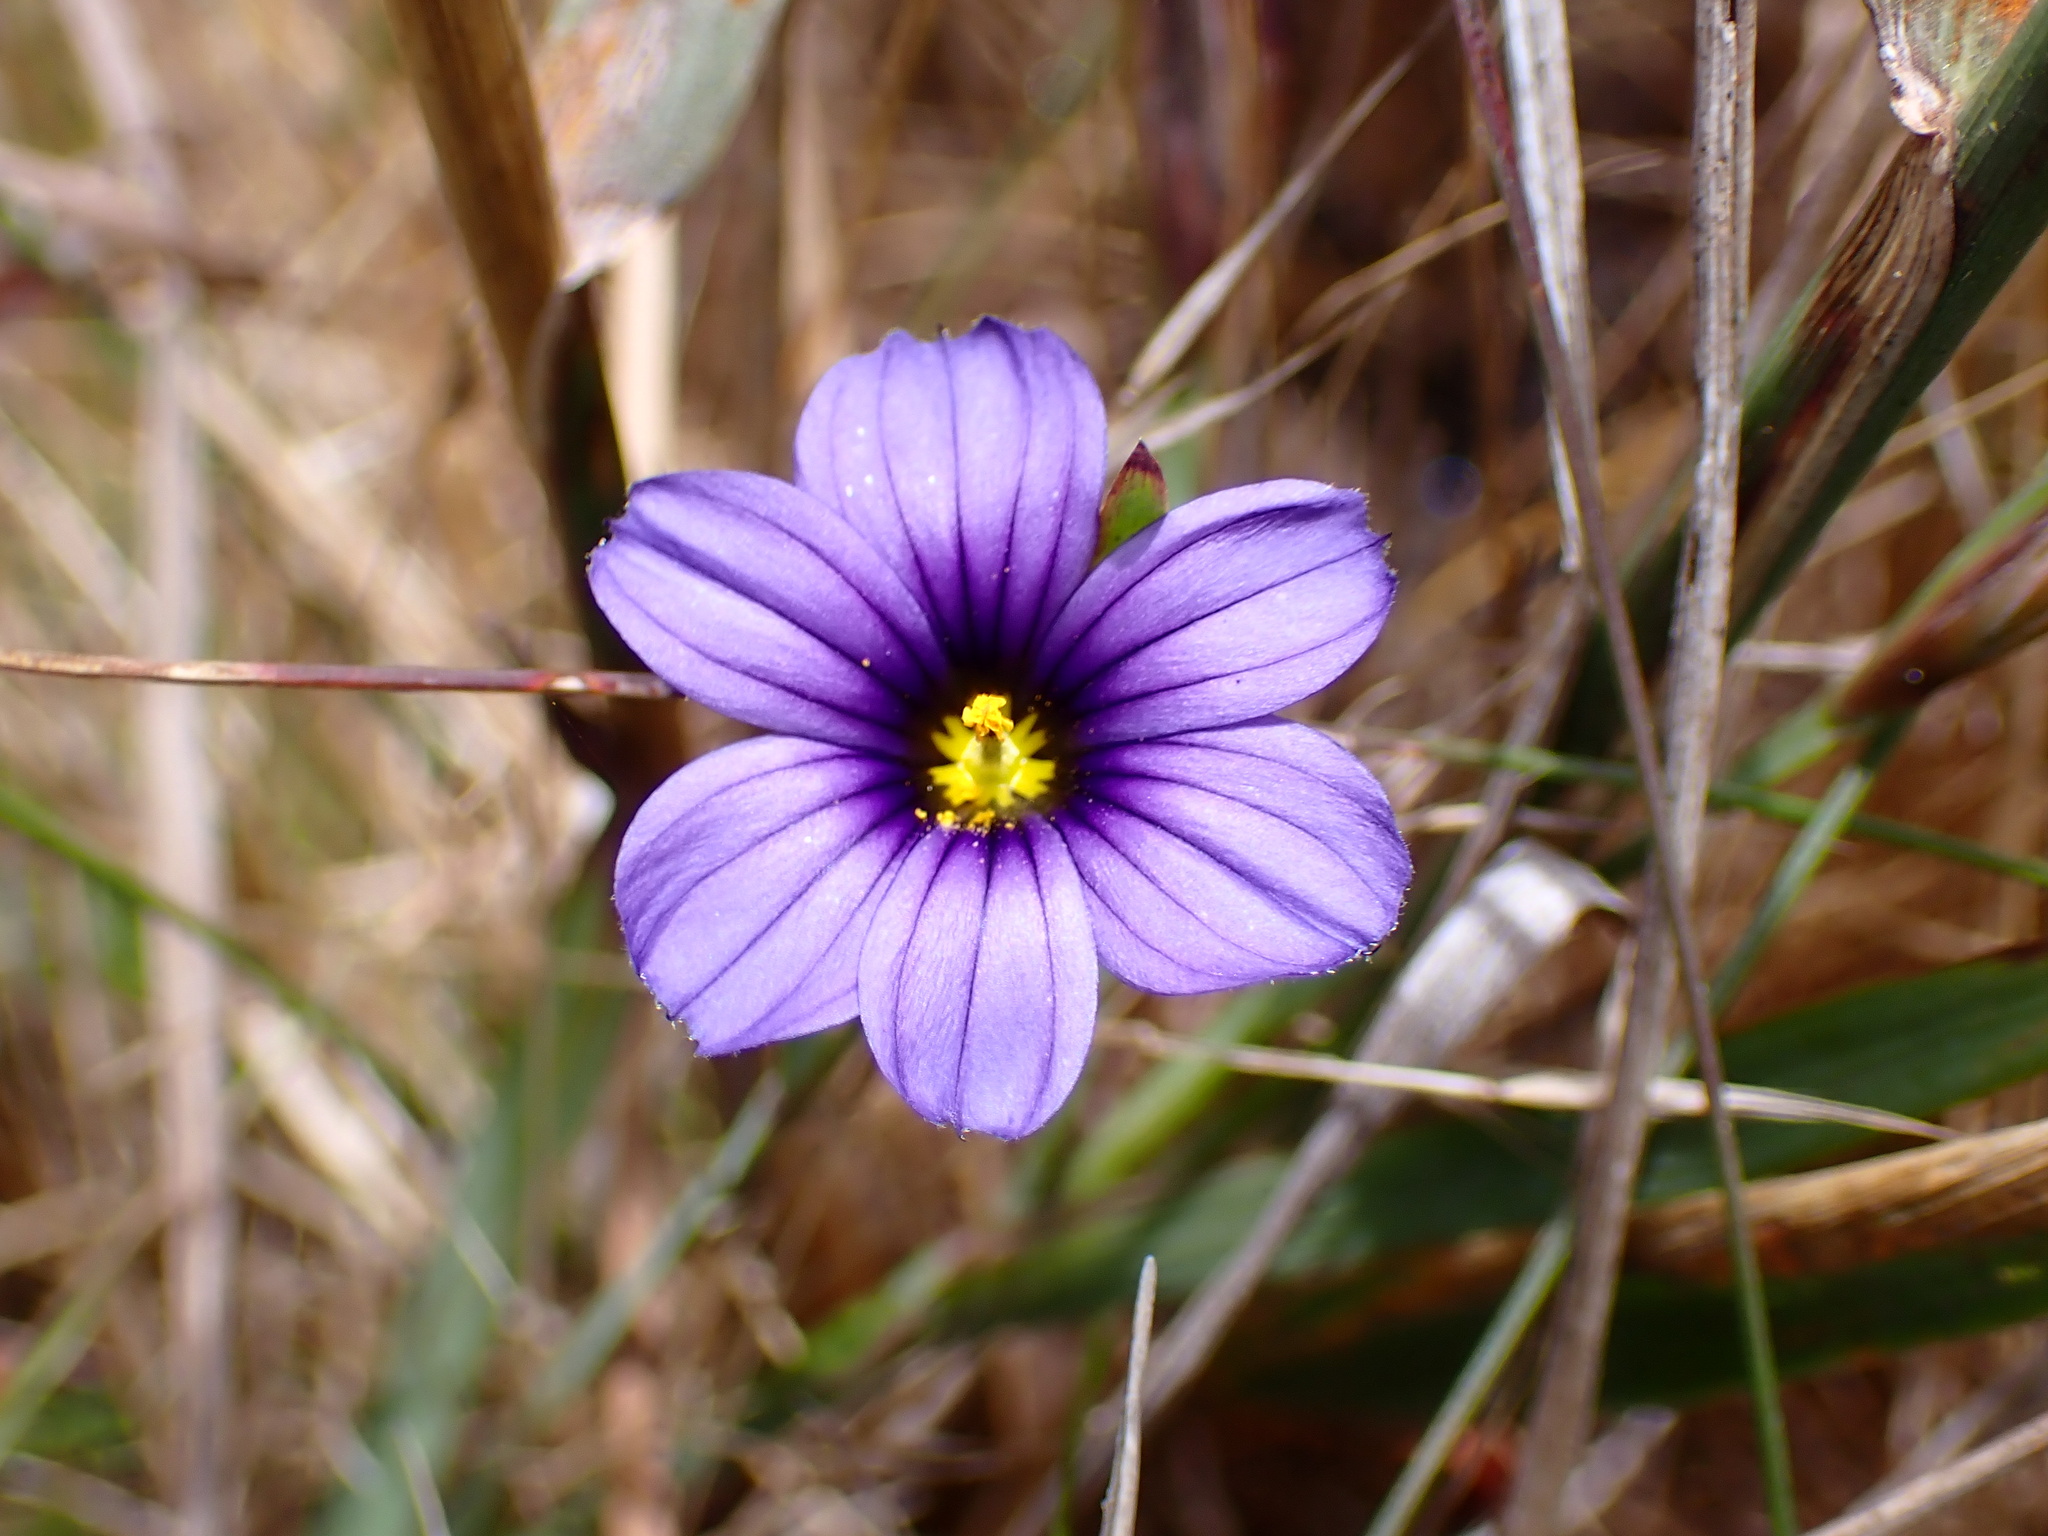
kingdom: Plantae
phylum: Tracheophyta
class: Liliopsida
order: Asparagales
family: Iridaceae
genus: Sisyrinchium
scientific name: Sisyrinchium bellum
